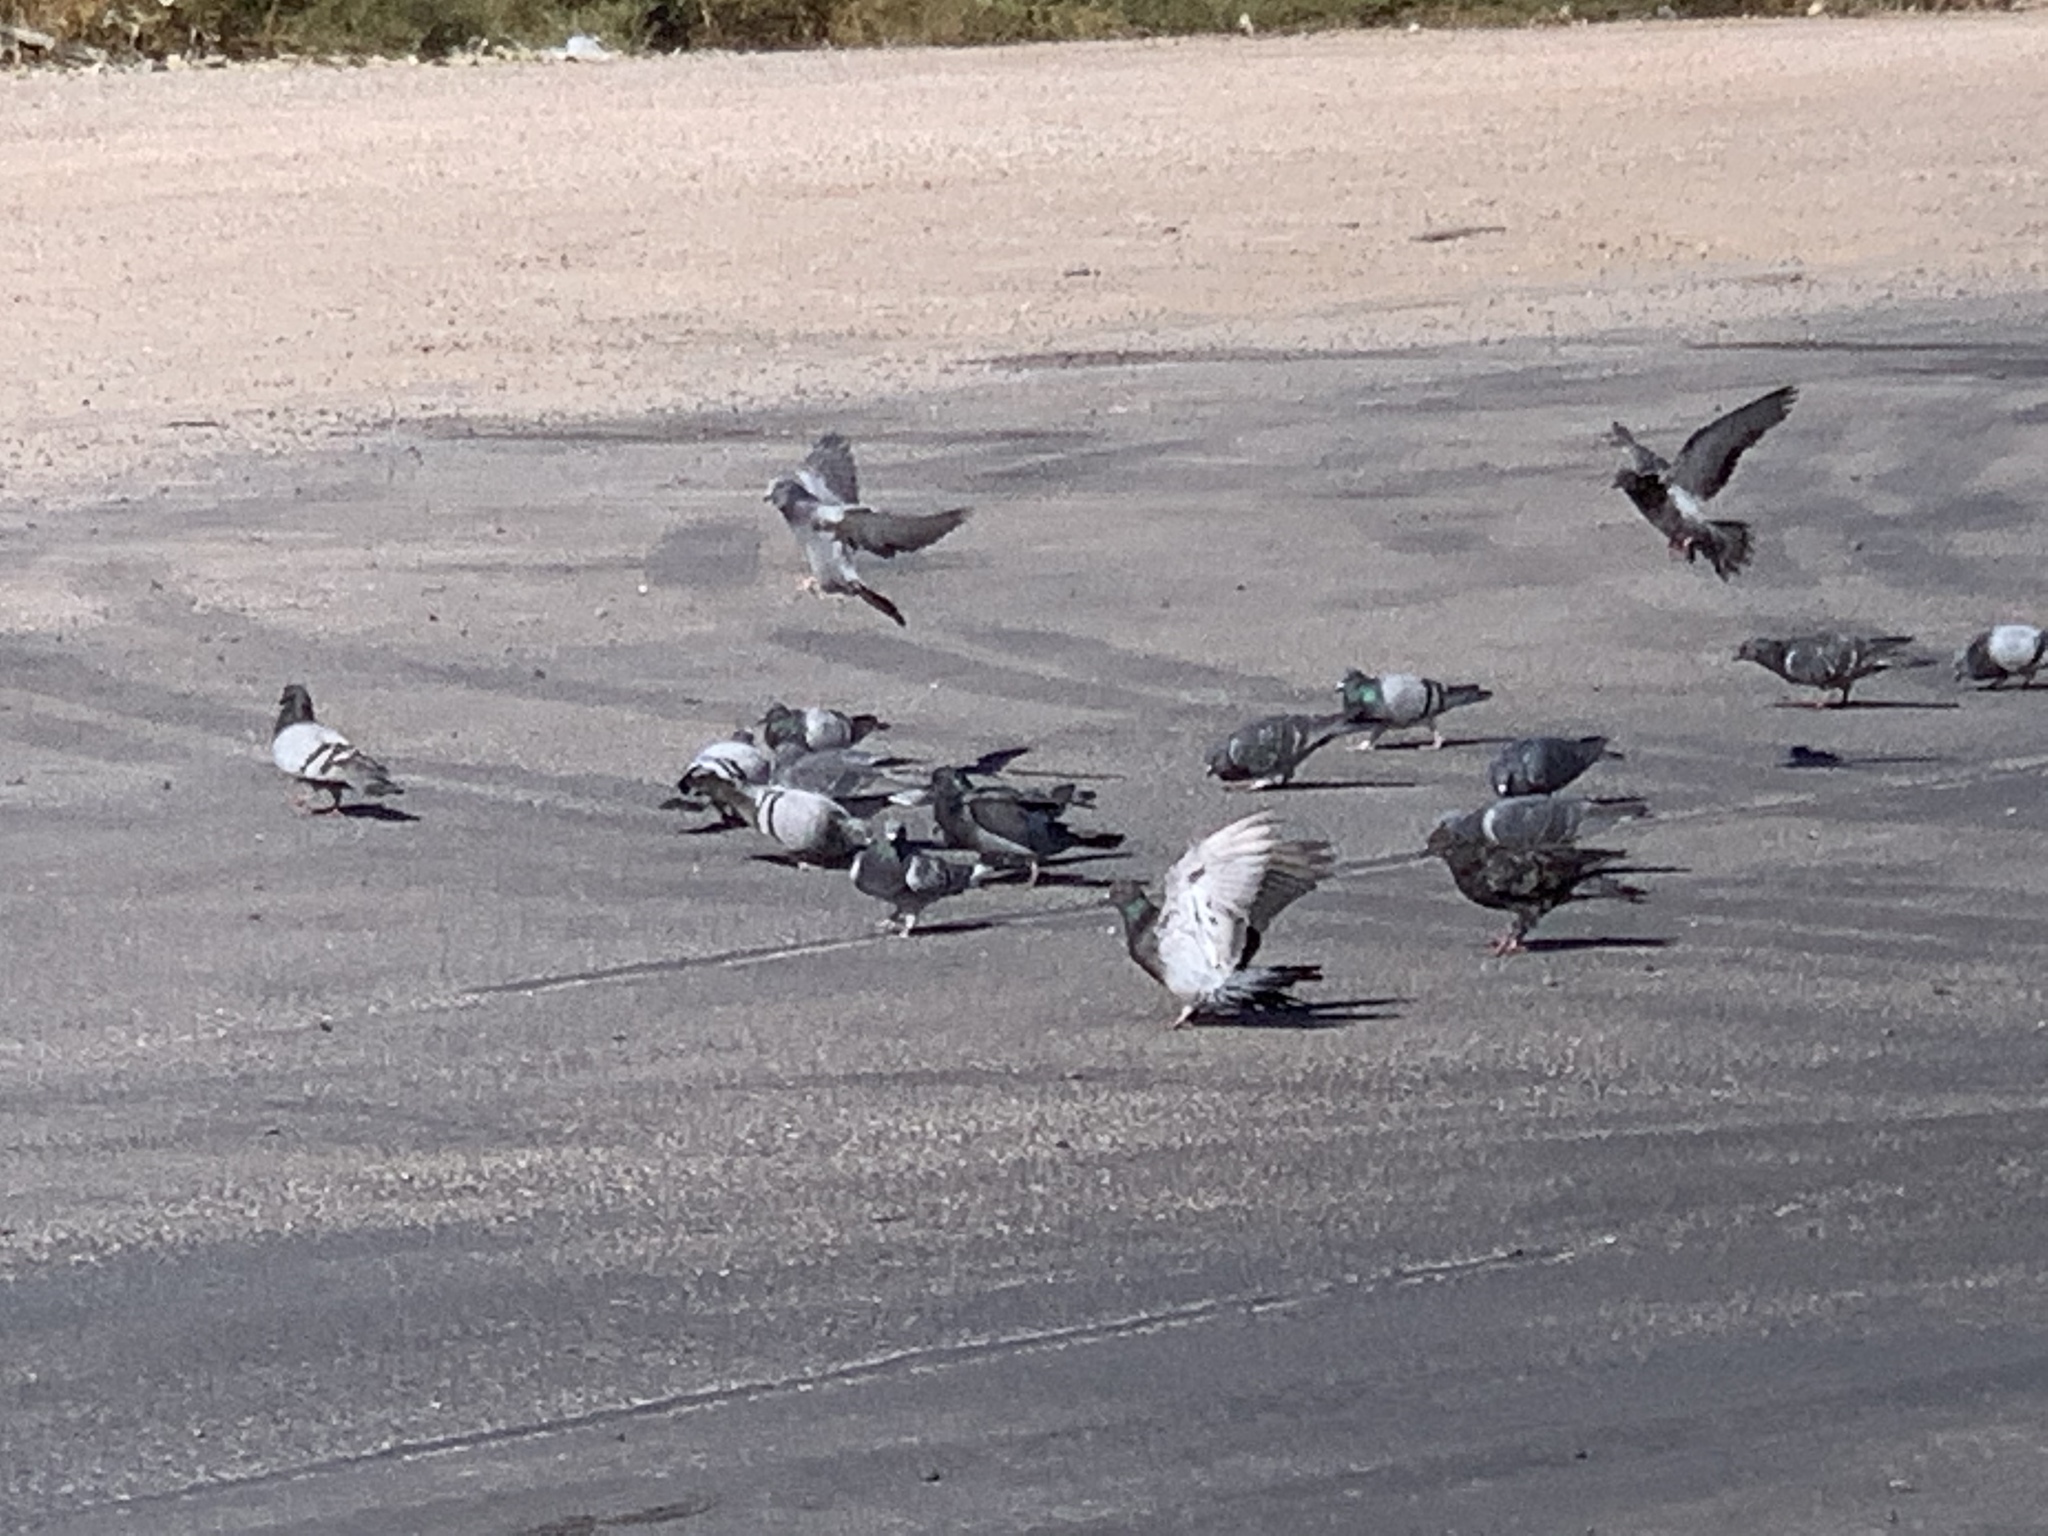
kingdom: Animalia
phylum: Chordata
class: Aves
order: Columbiformes
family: Columbidae
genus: Columba
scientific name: Columba livia
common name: Rock pigeon
